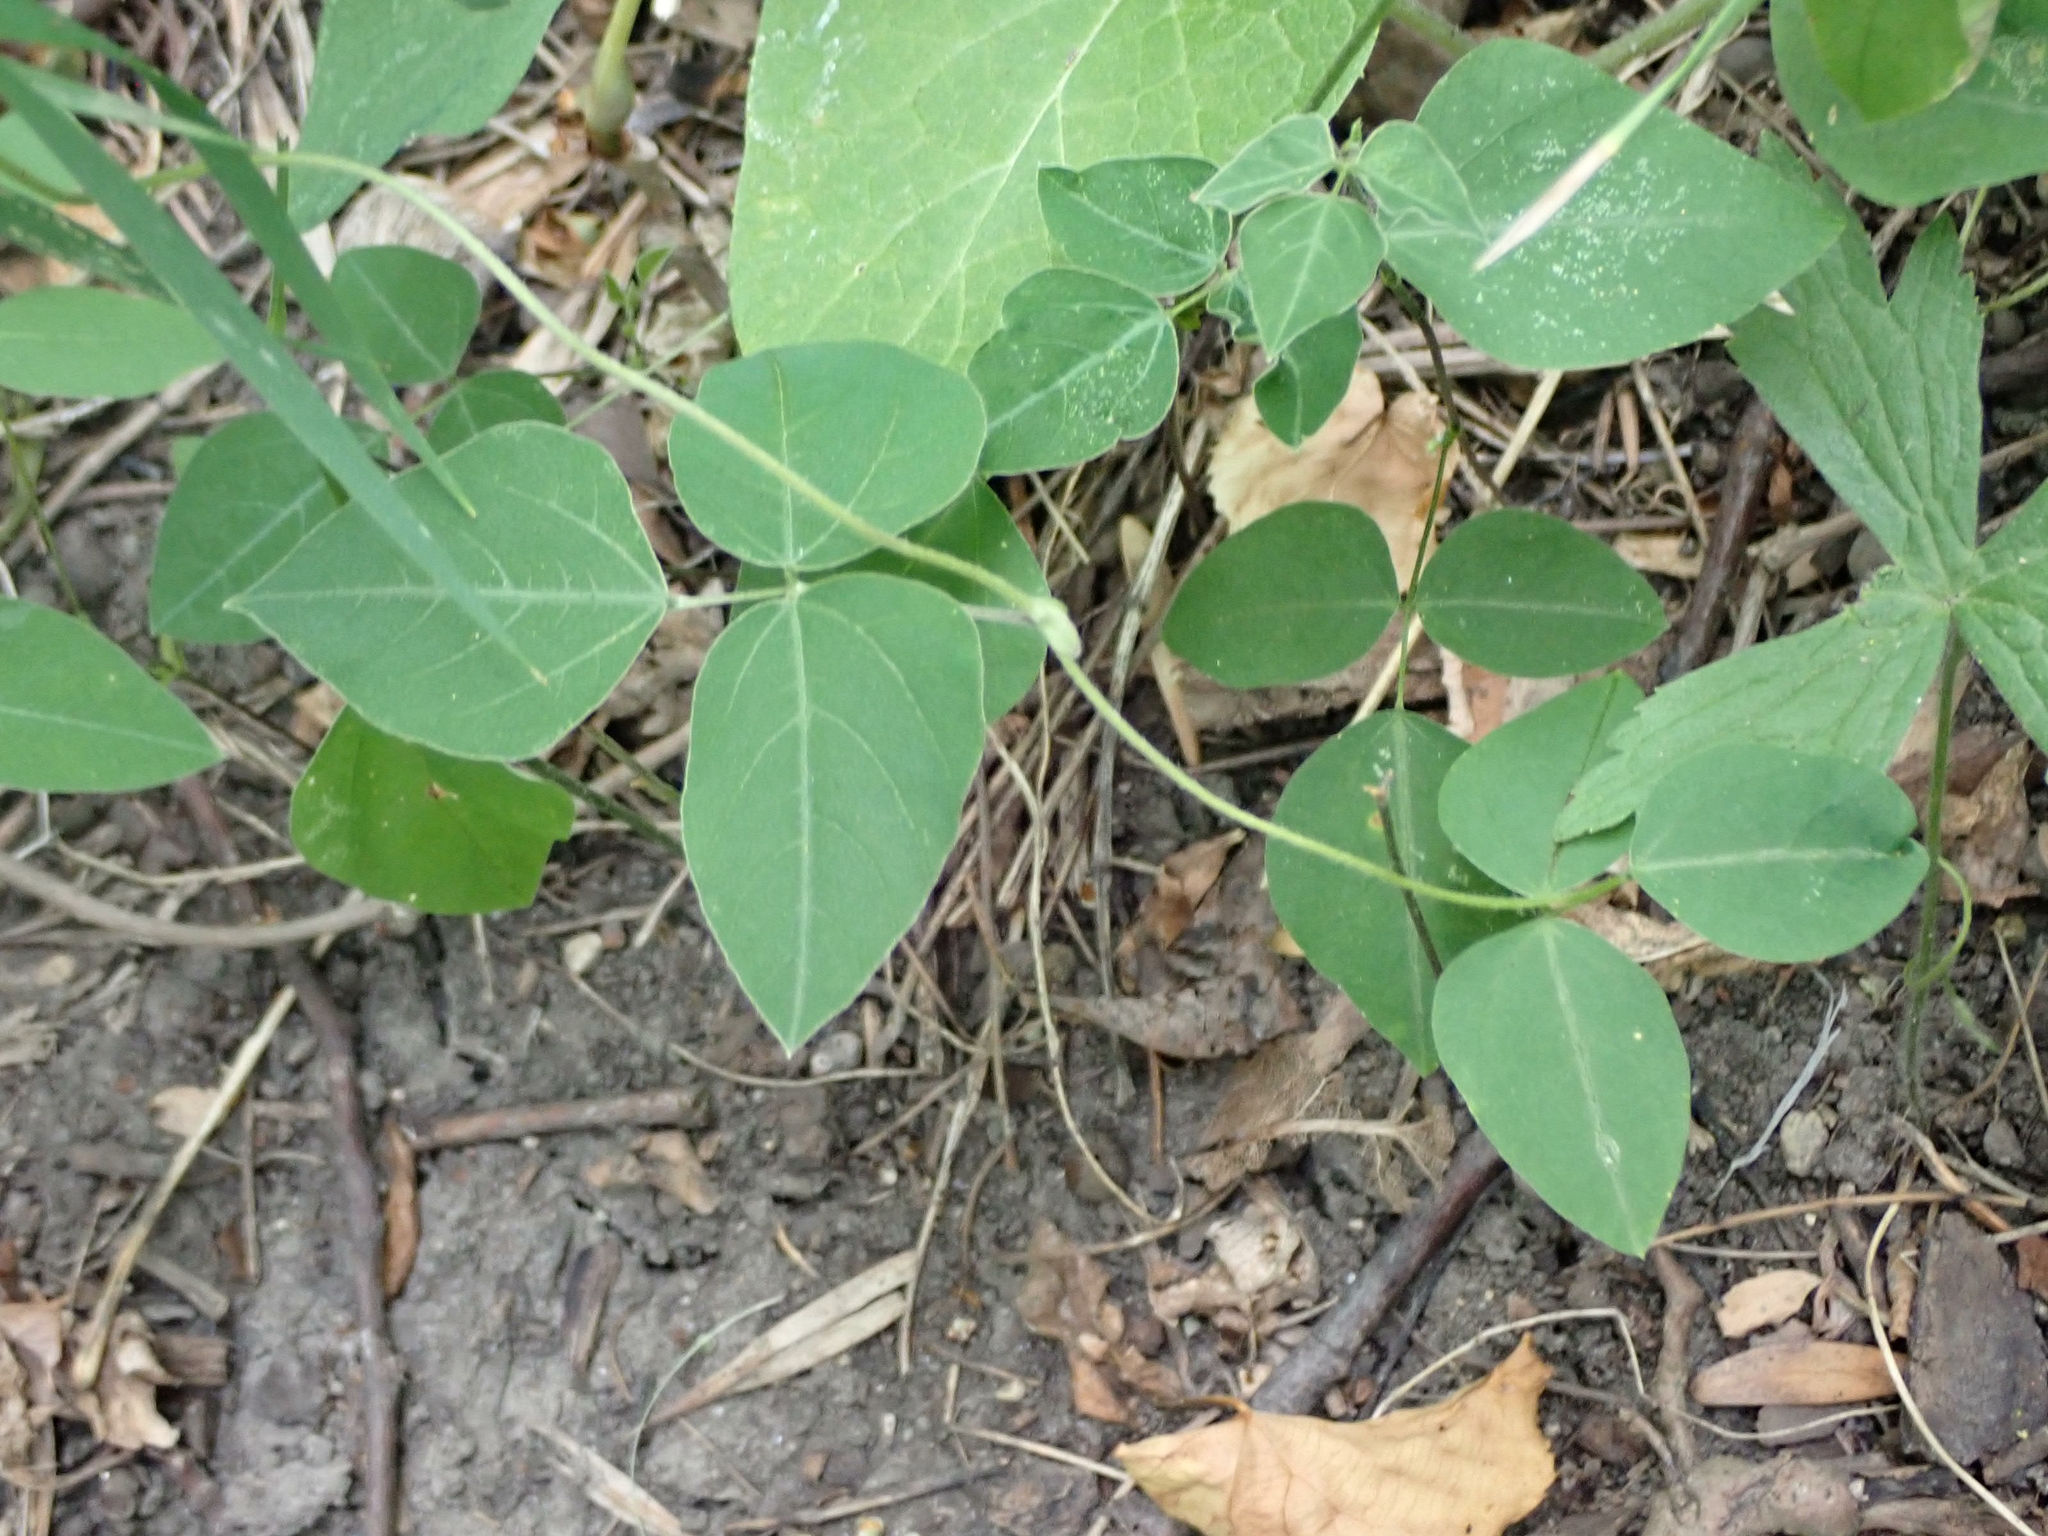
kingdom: Plantae
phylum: Tracheophyta
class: Magnoliopsida
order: Fabales
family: Fabaceae
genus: Amphicarpaea
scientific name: Amphicarpaea bracteata
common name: American hog peanut
